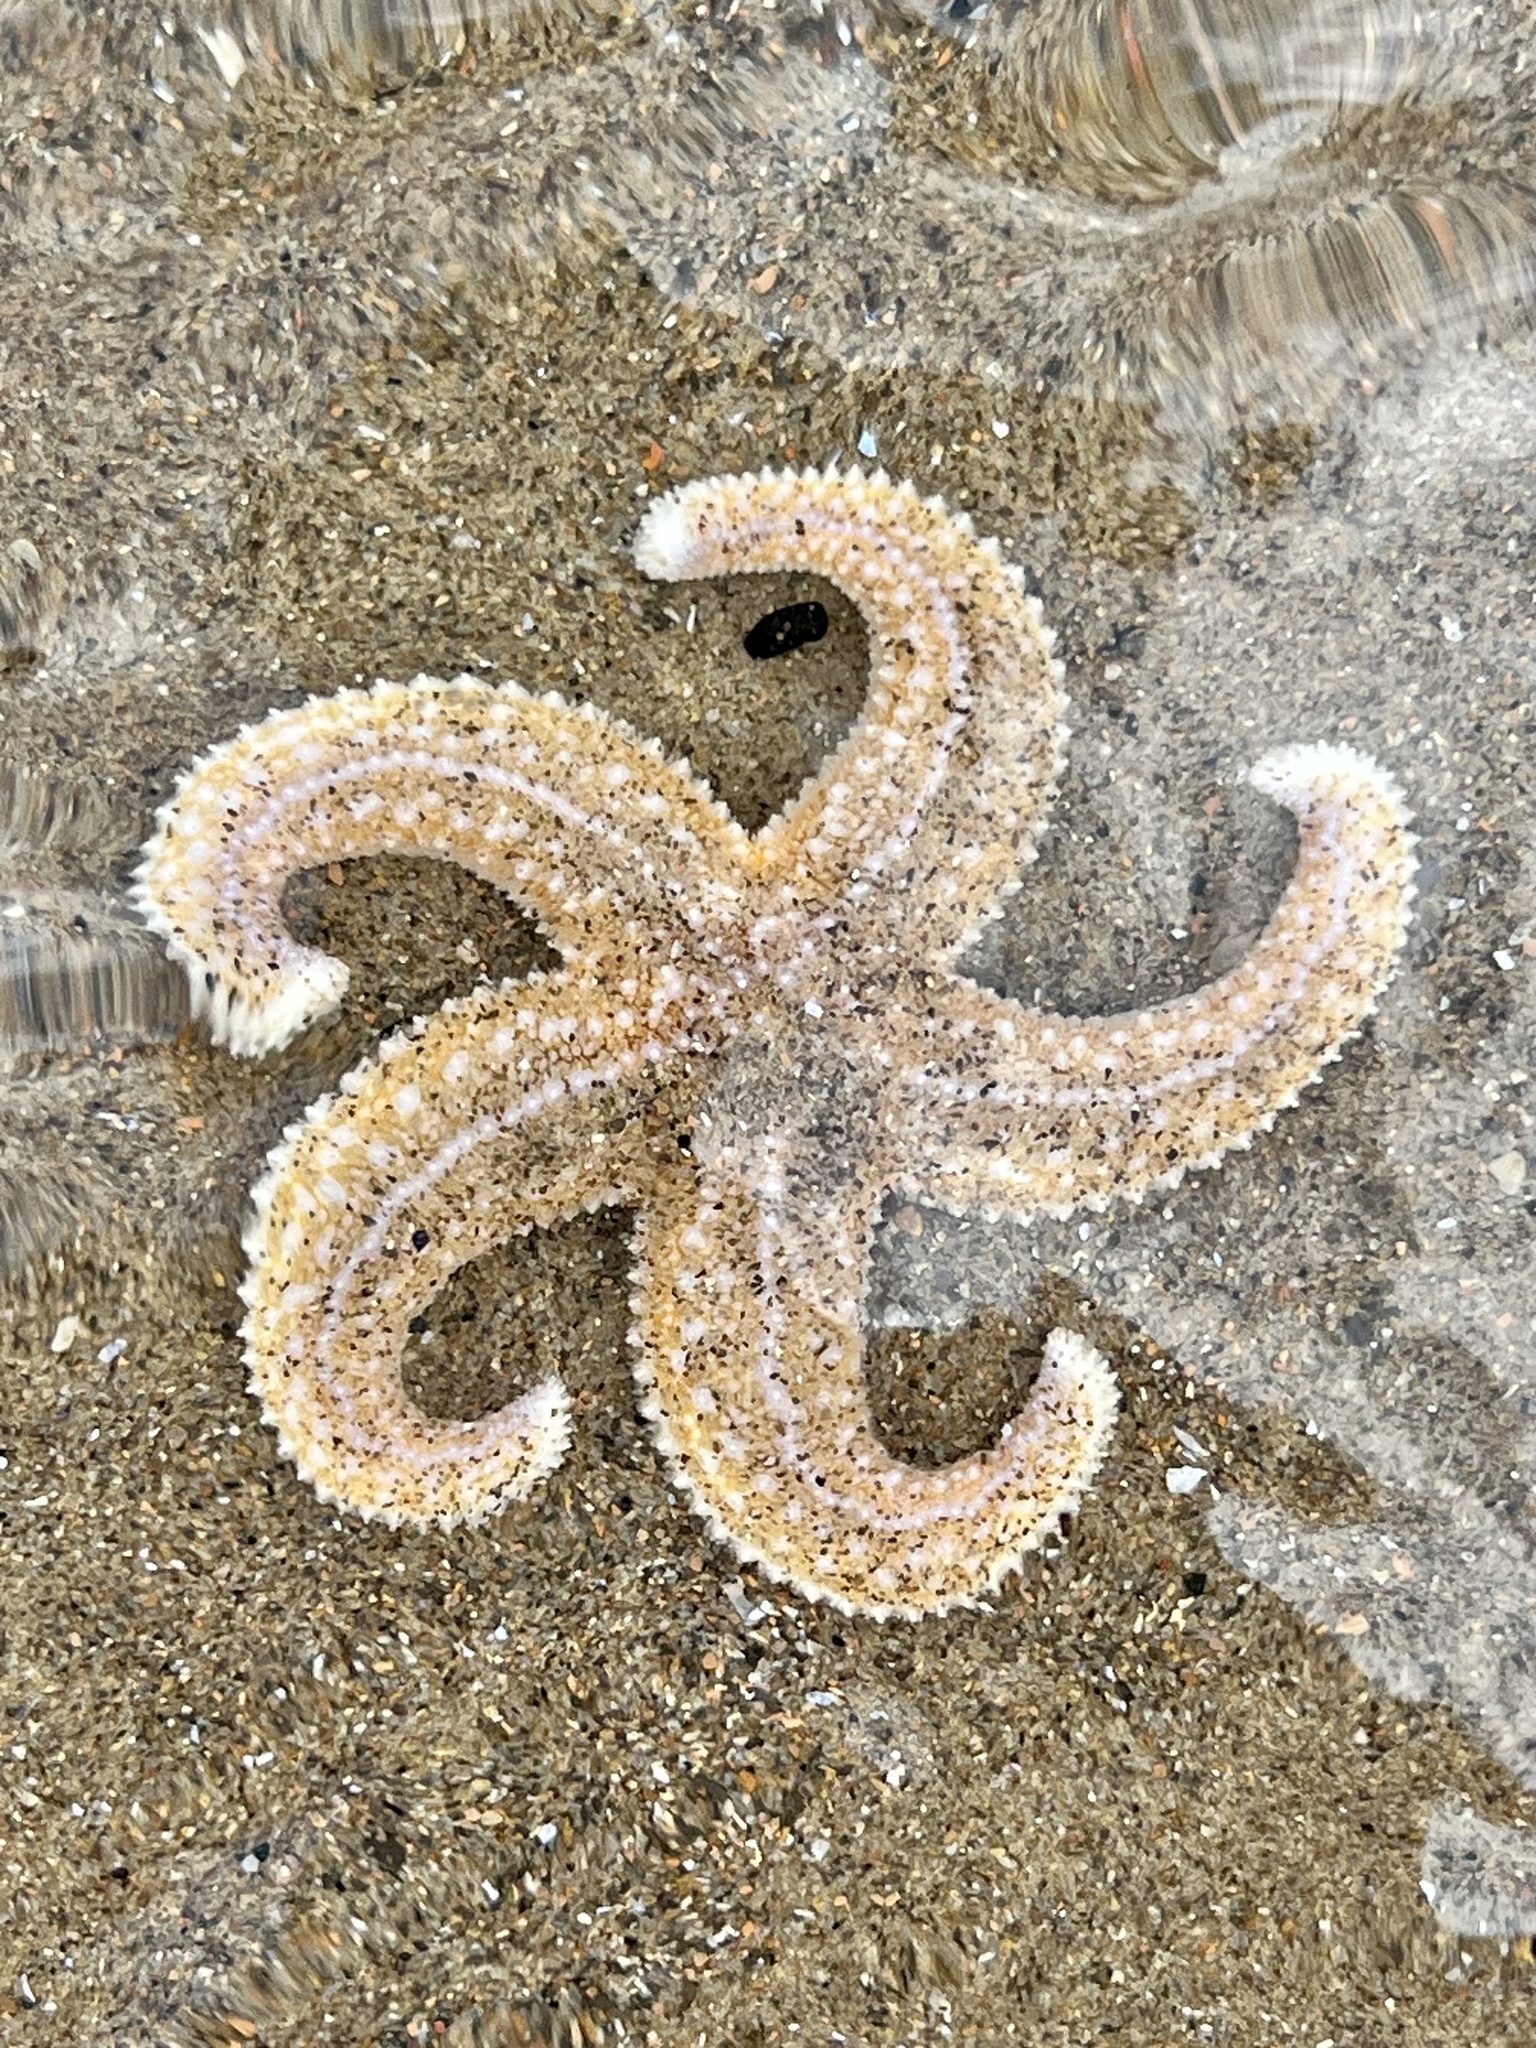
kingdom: Animalia
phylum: Echinodermata
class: Asteroidea
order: Forcipulatida
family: Asteriidae
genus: Asterias
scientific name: Asterias rubens
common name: Common starfish
